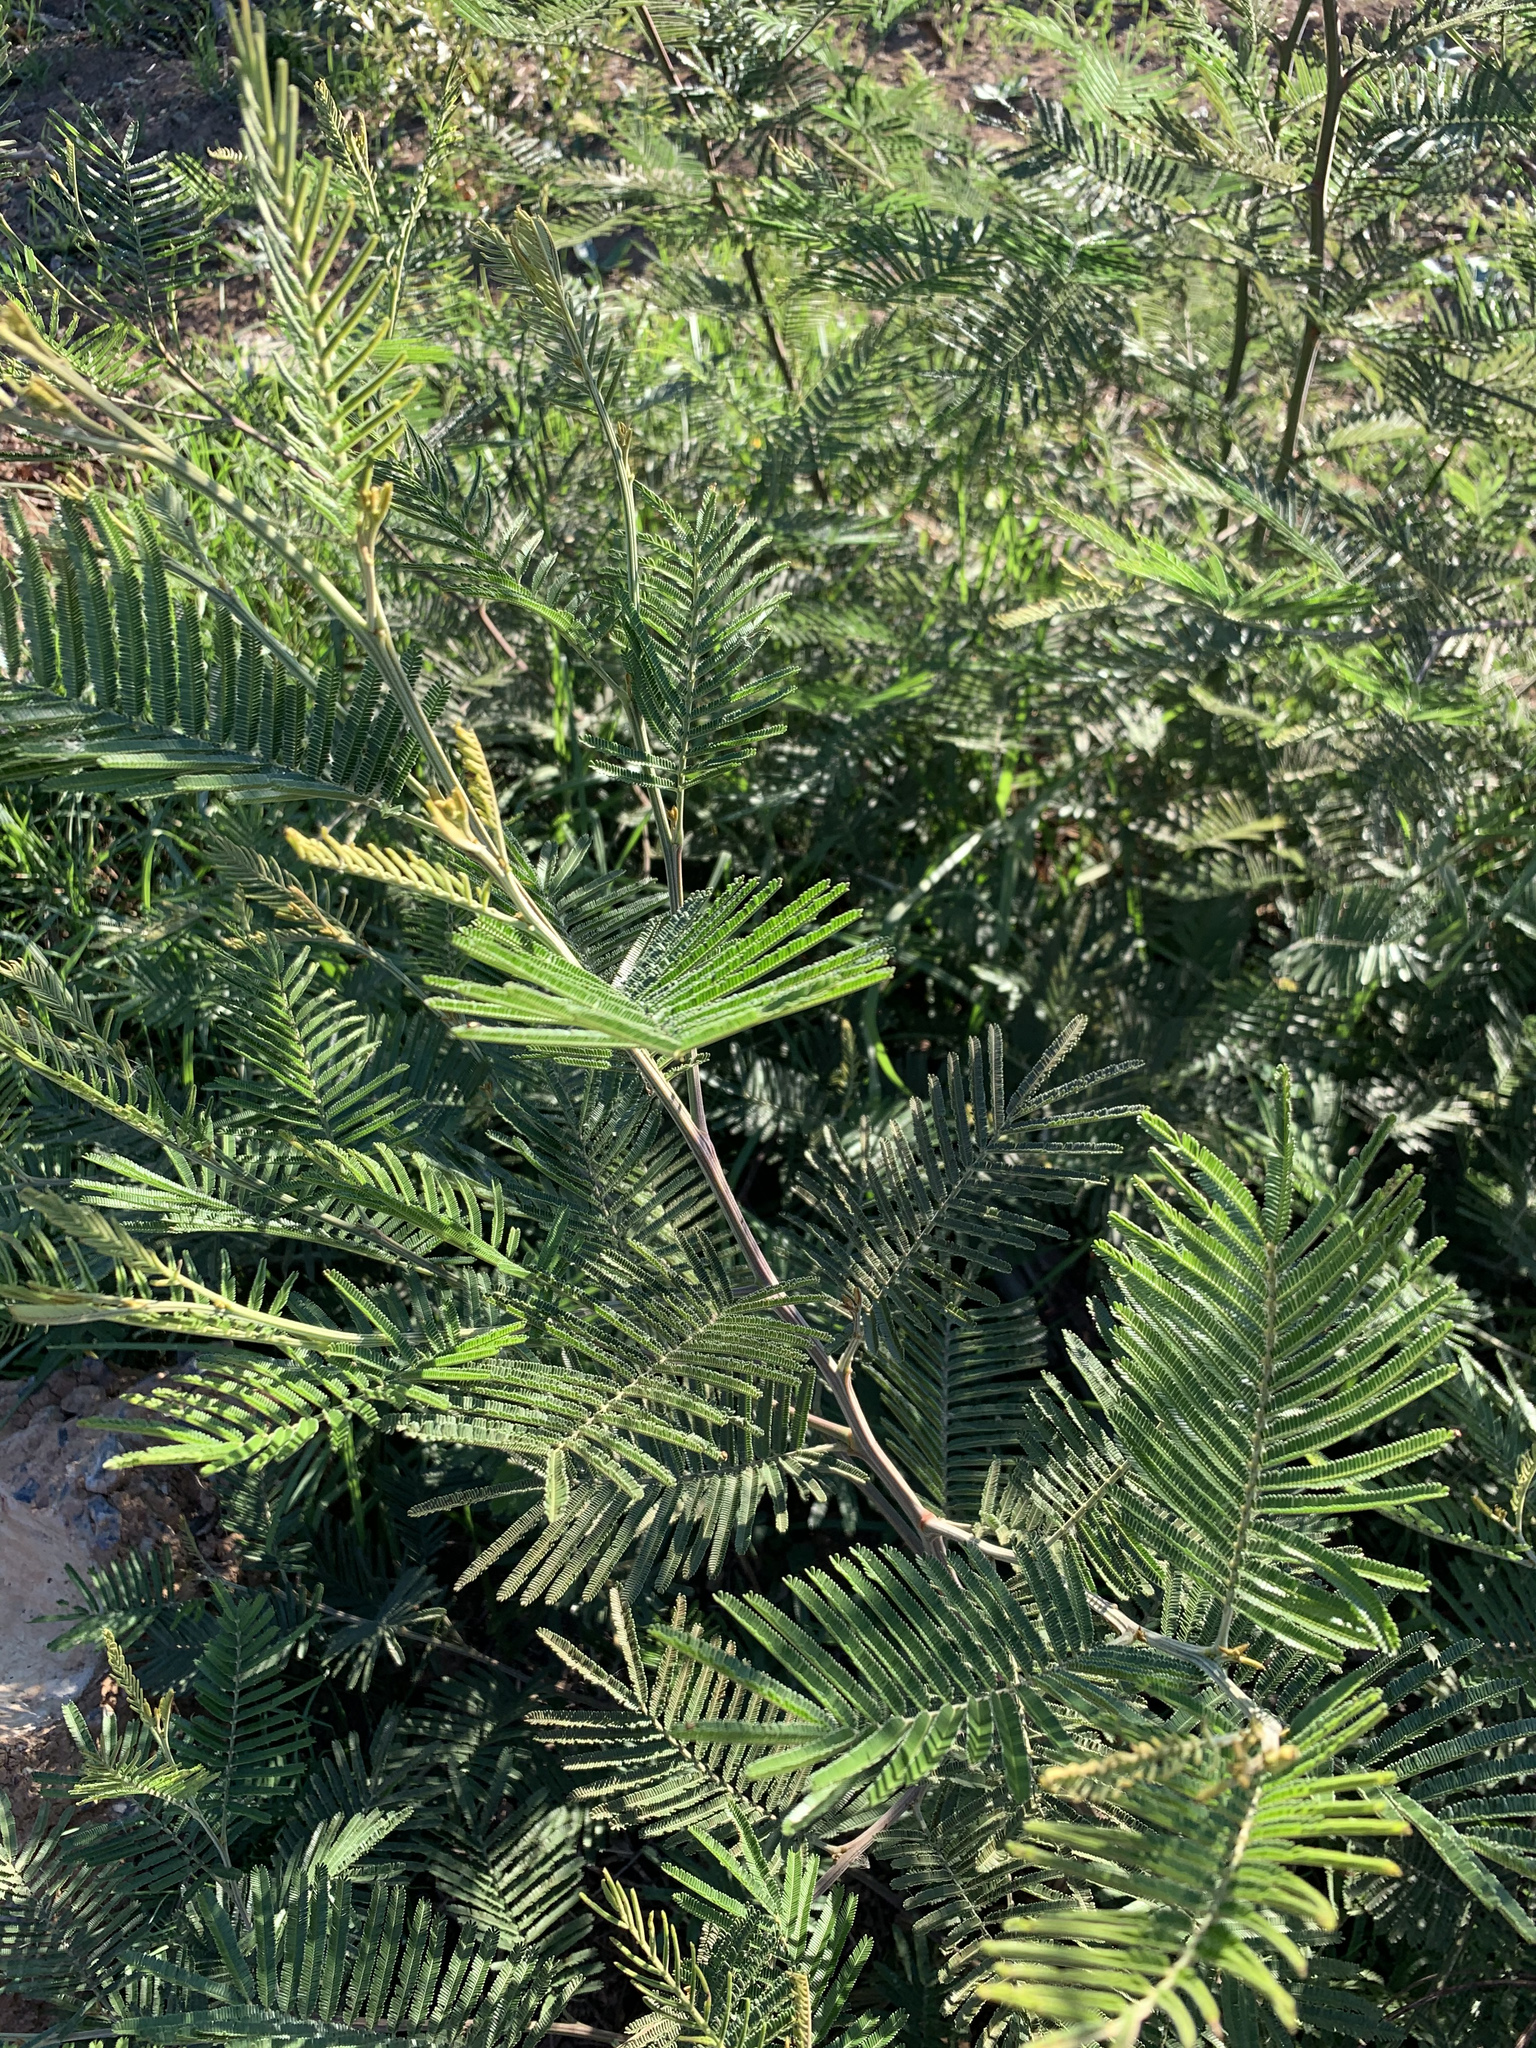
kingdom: Plantae
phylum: Tracheophyta
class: Magnoliopsida
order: Fabales
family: Fabaceae
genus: Acacia
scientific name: Acacia mearnsii
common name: Black wattle
